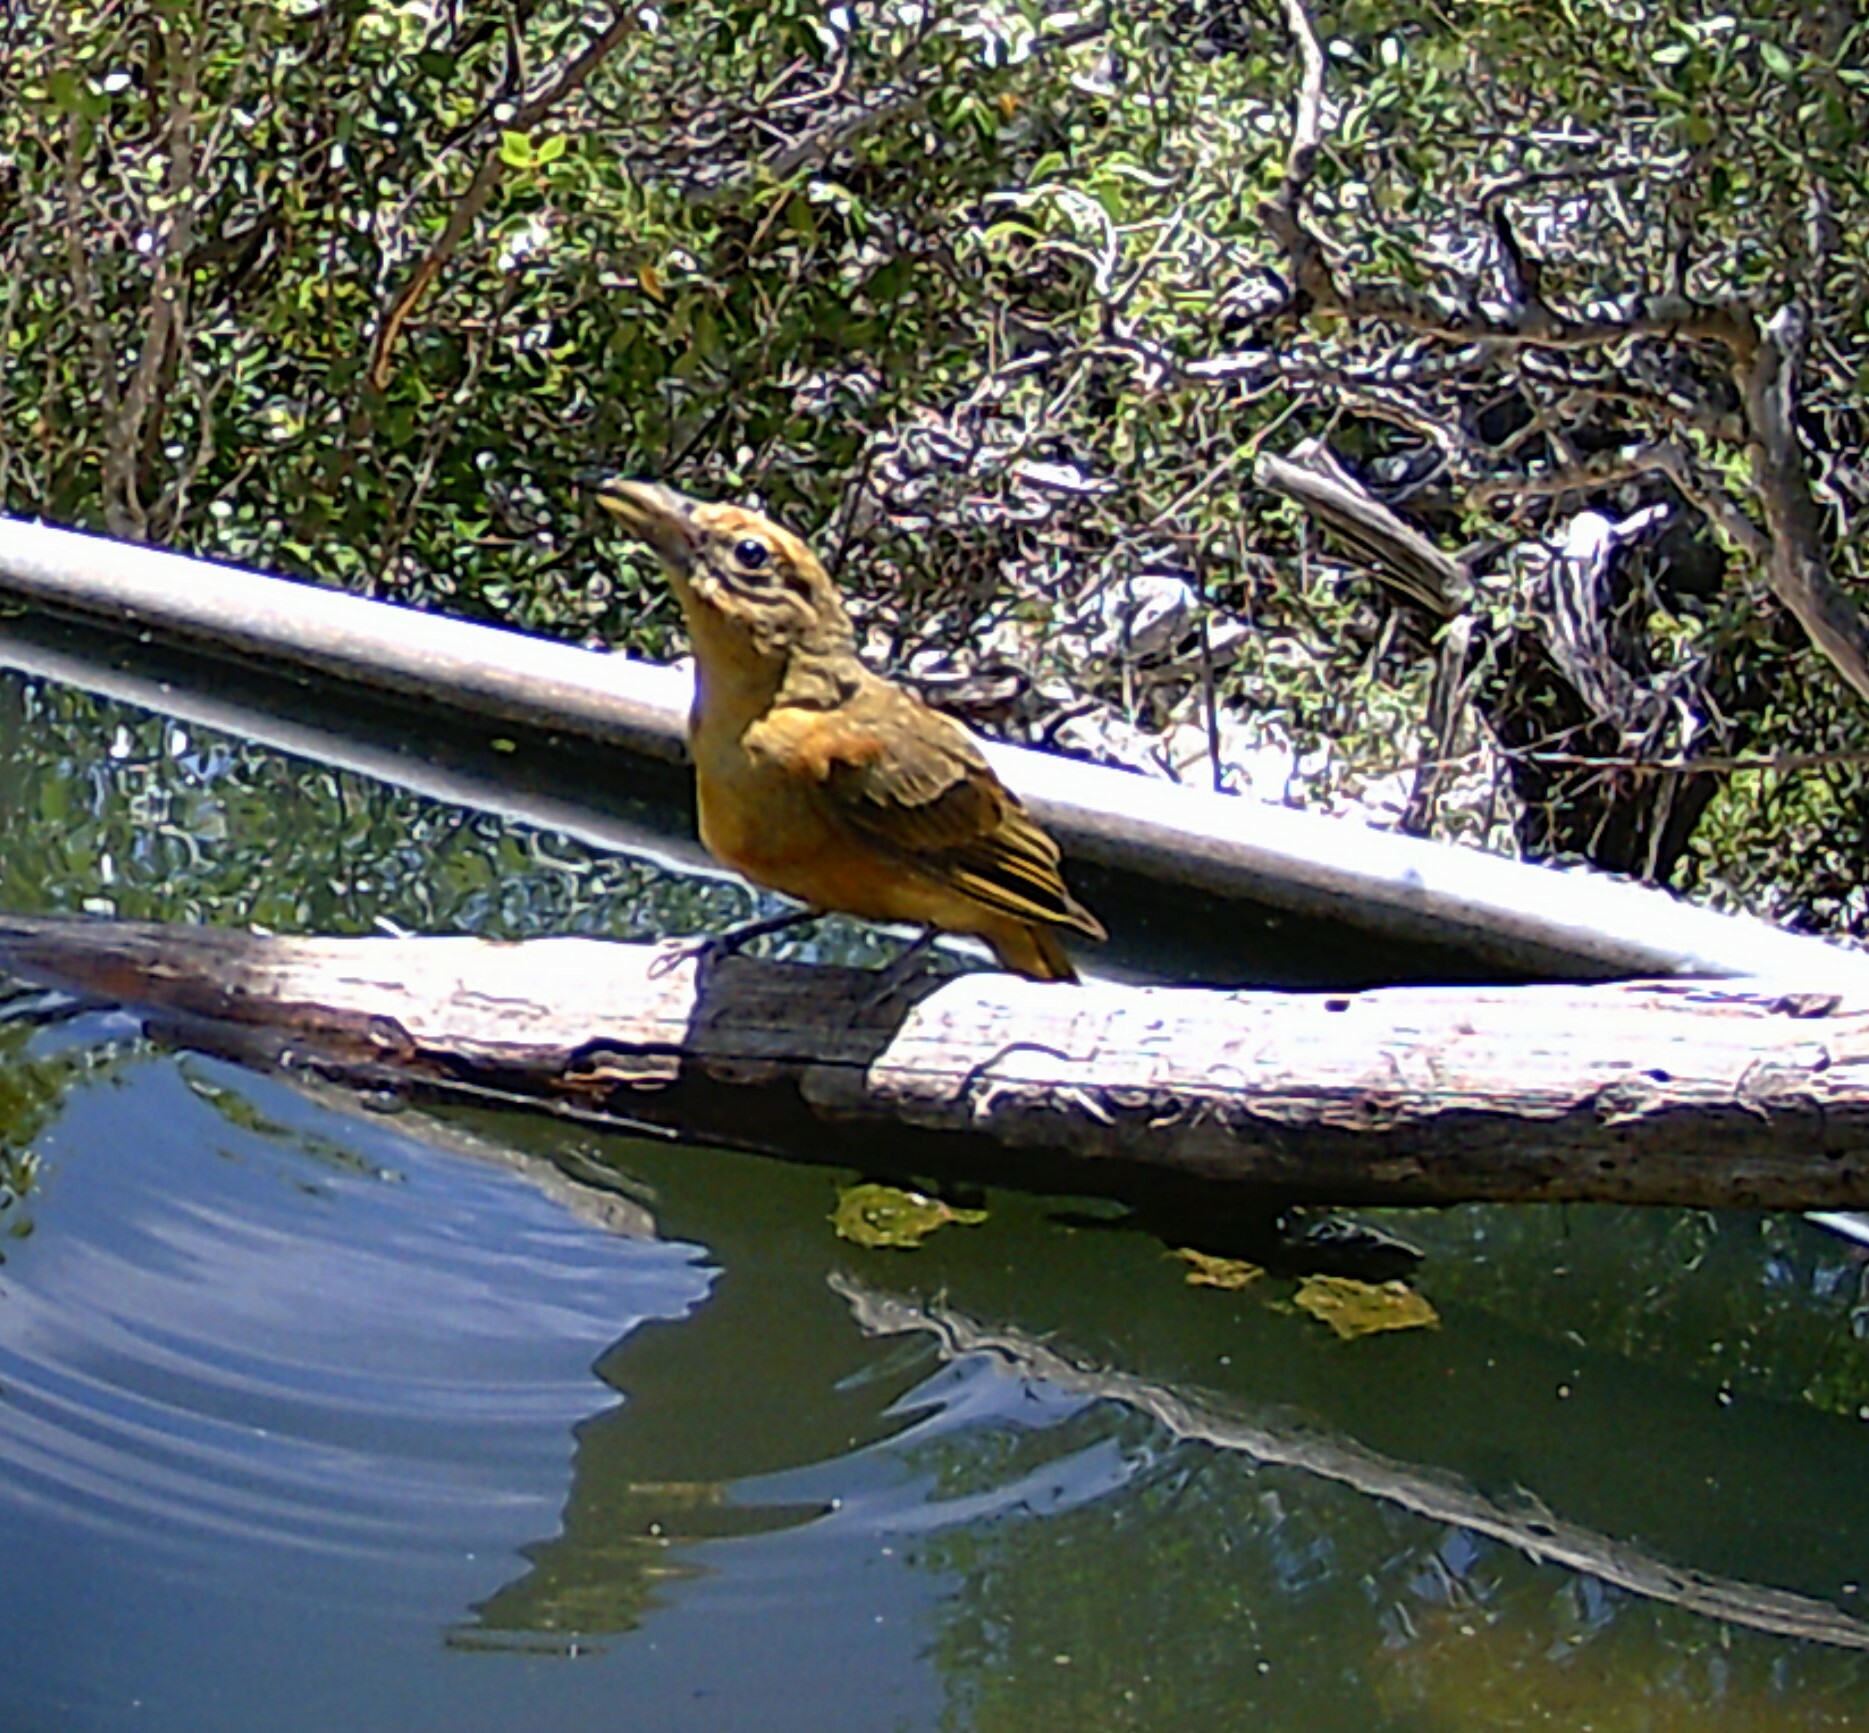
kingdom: Animalia
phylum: Chordata
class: Aves
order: Passeriformes
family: Cardinalidae
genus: Piranga
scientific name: Piranga rubra
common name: Summer tanager
